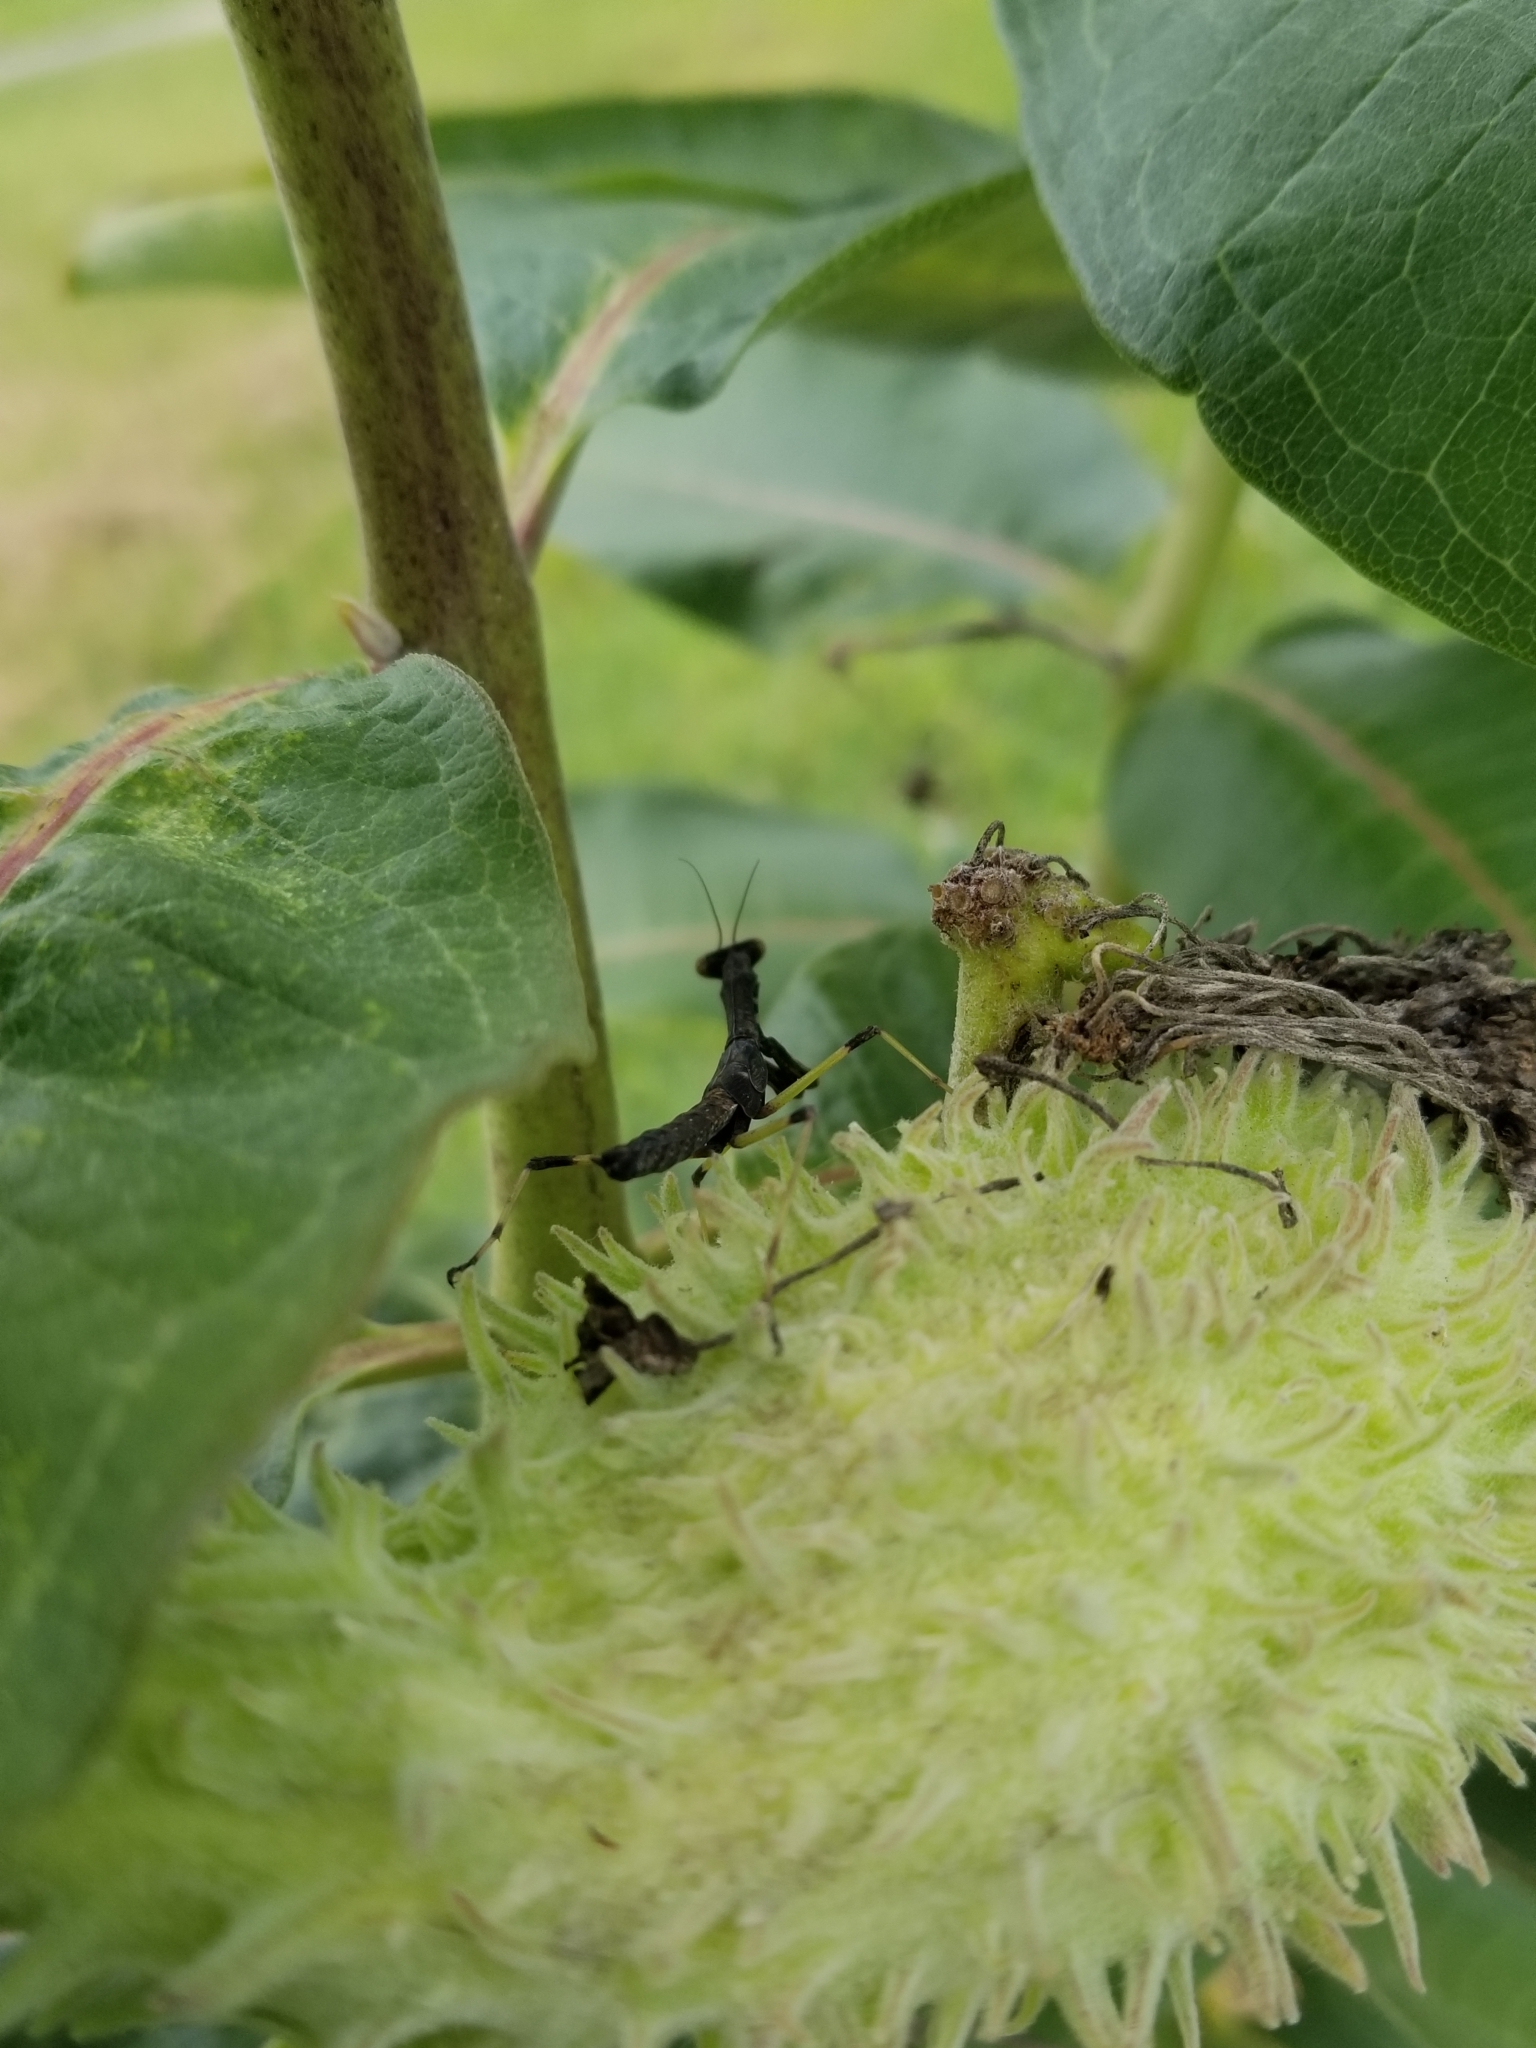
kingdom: Animalia
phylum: Arthropoda
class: Insecta
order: Mantodea
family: Mantidae
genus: Stagmomantis
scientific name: Stagmomantis carolina
